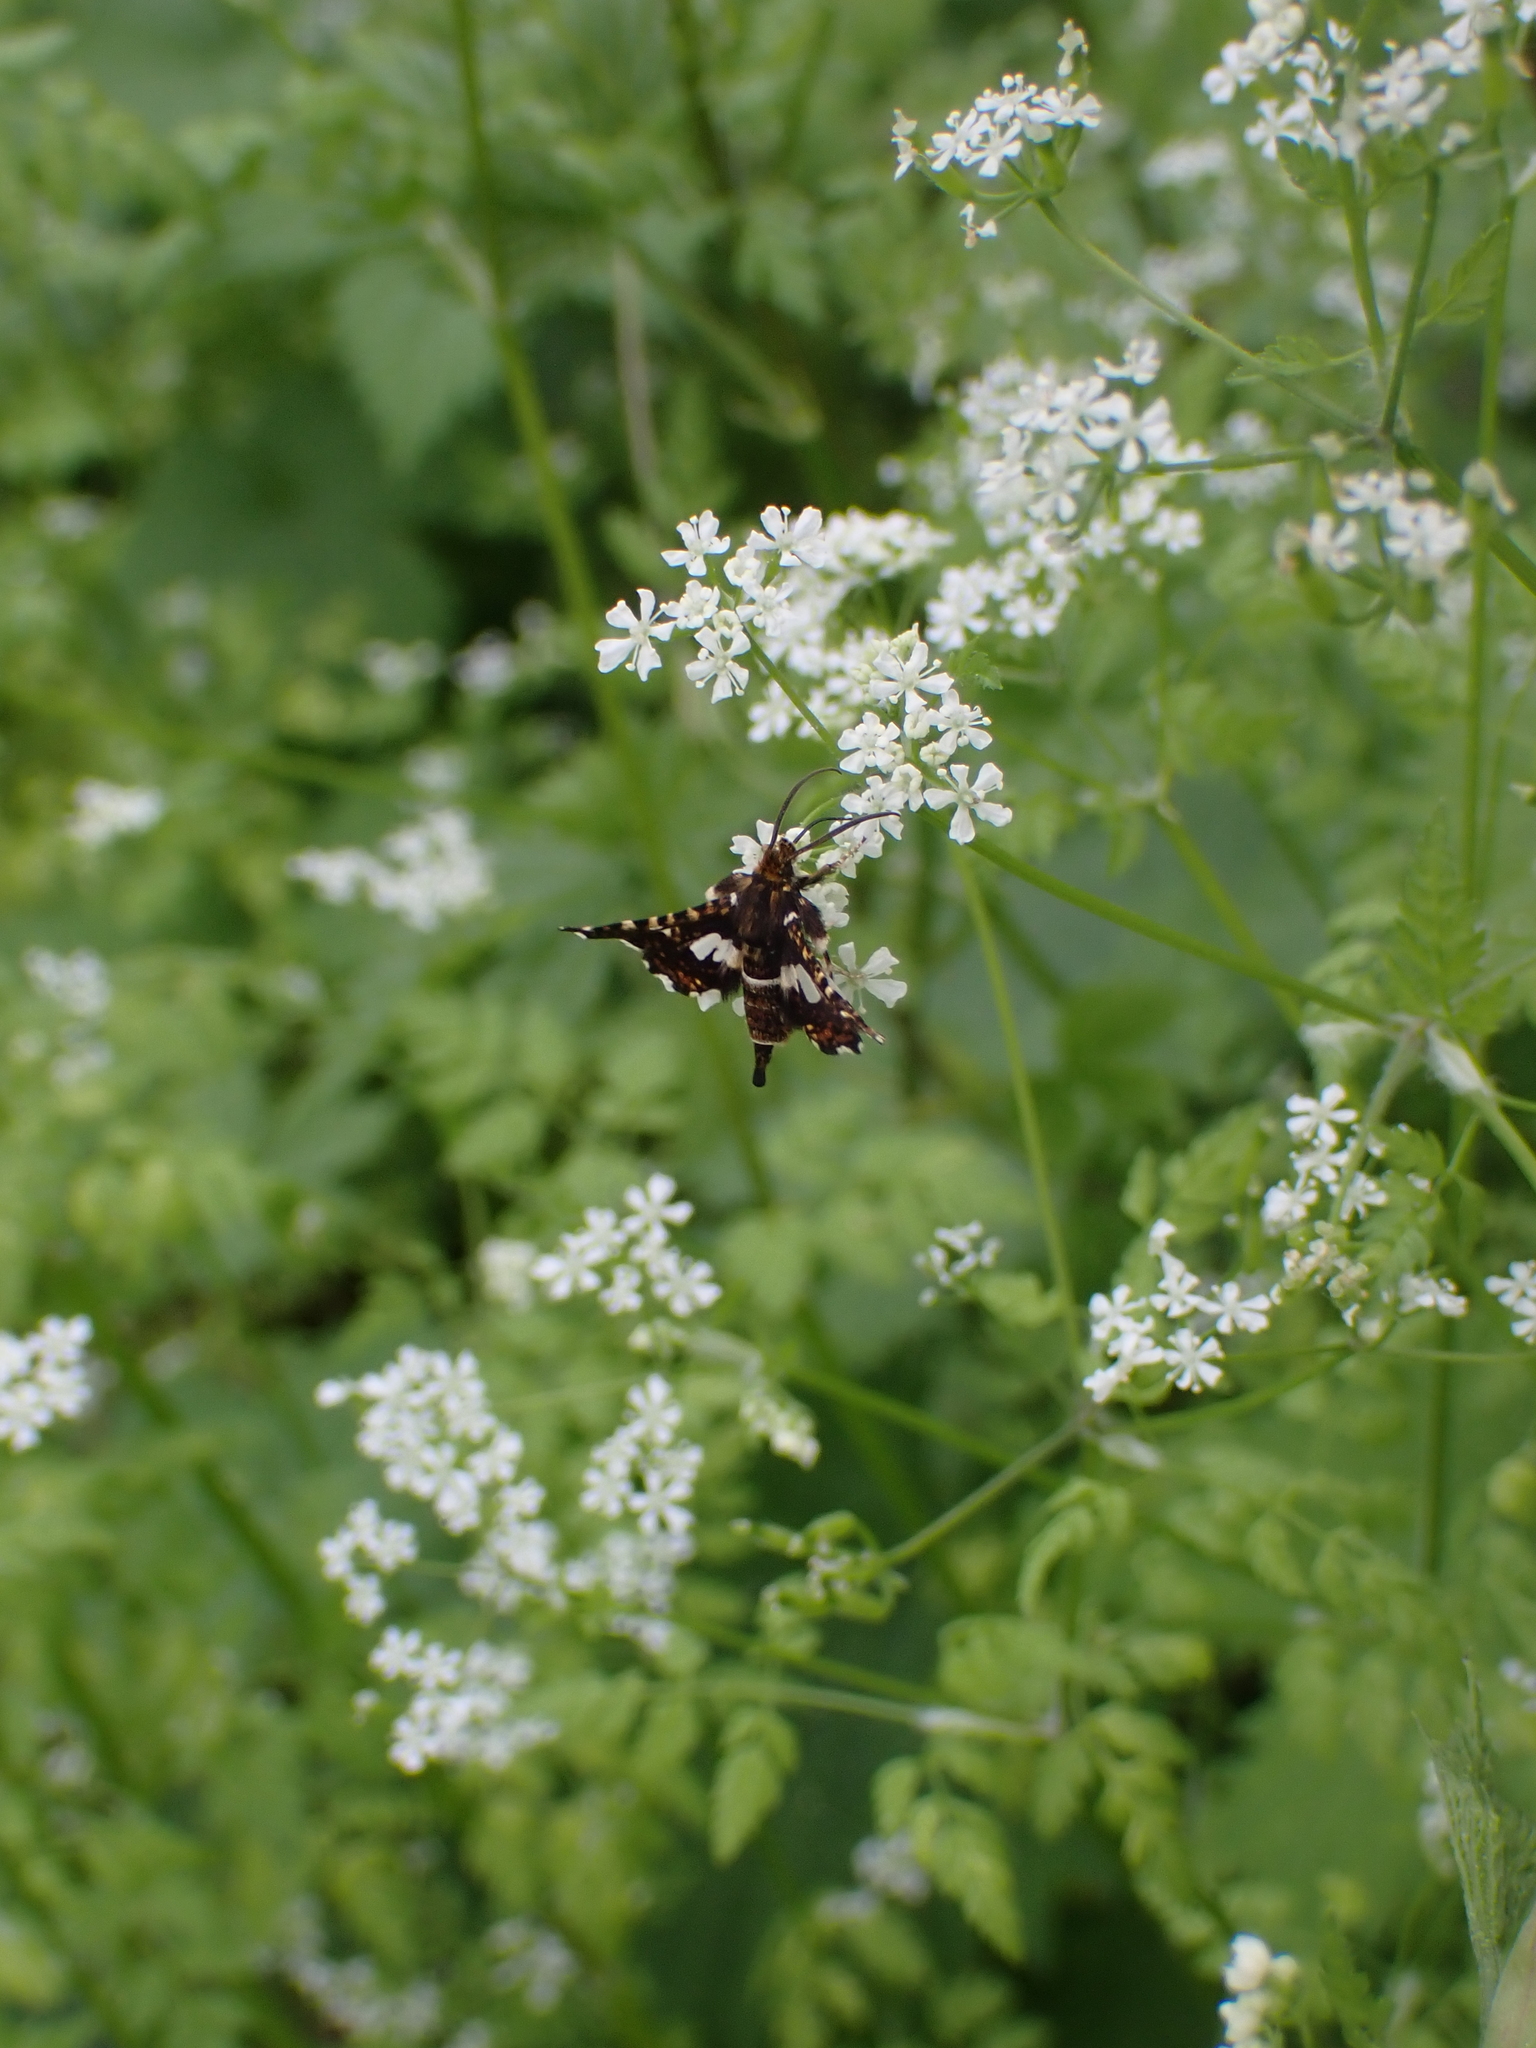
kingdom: Animalia
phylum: Arthropoda
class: Insecta
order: Lepidoptera
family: Thyrididae
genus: Thyris
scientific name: Thyris fenestrella
